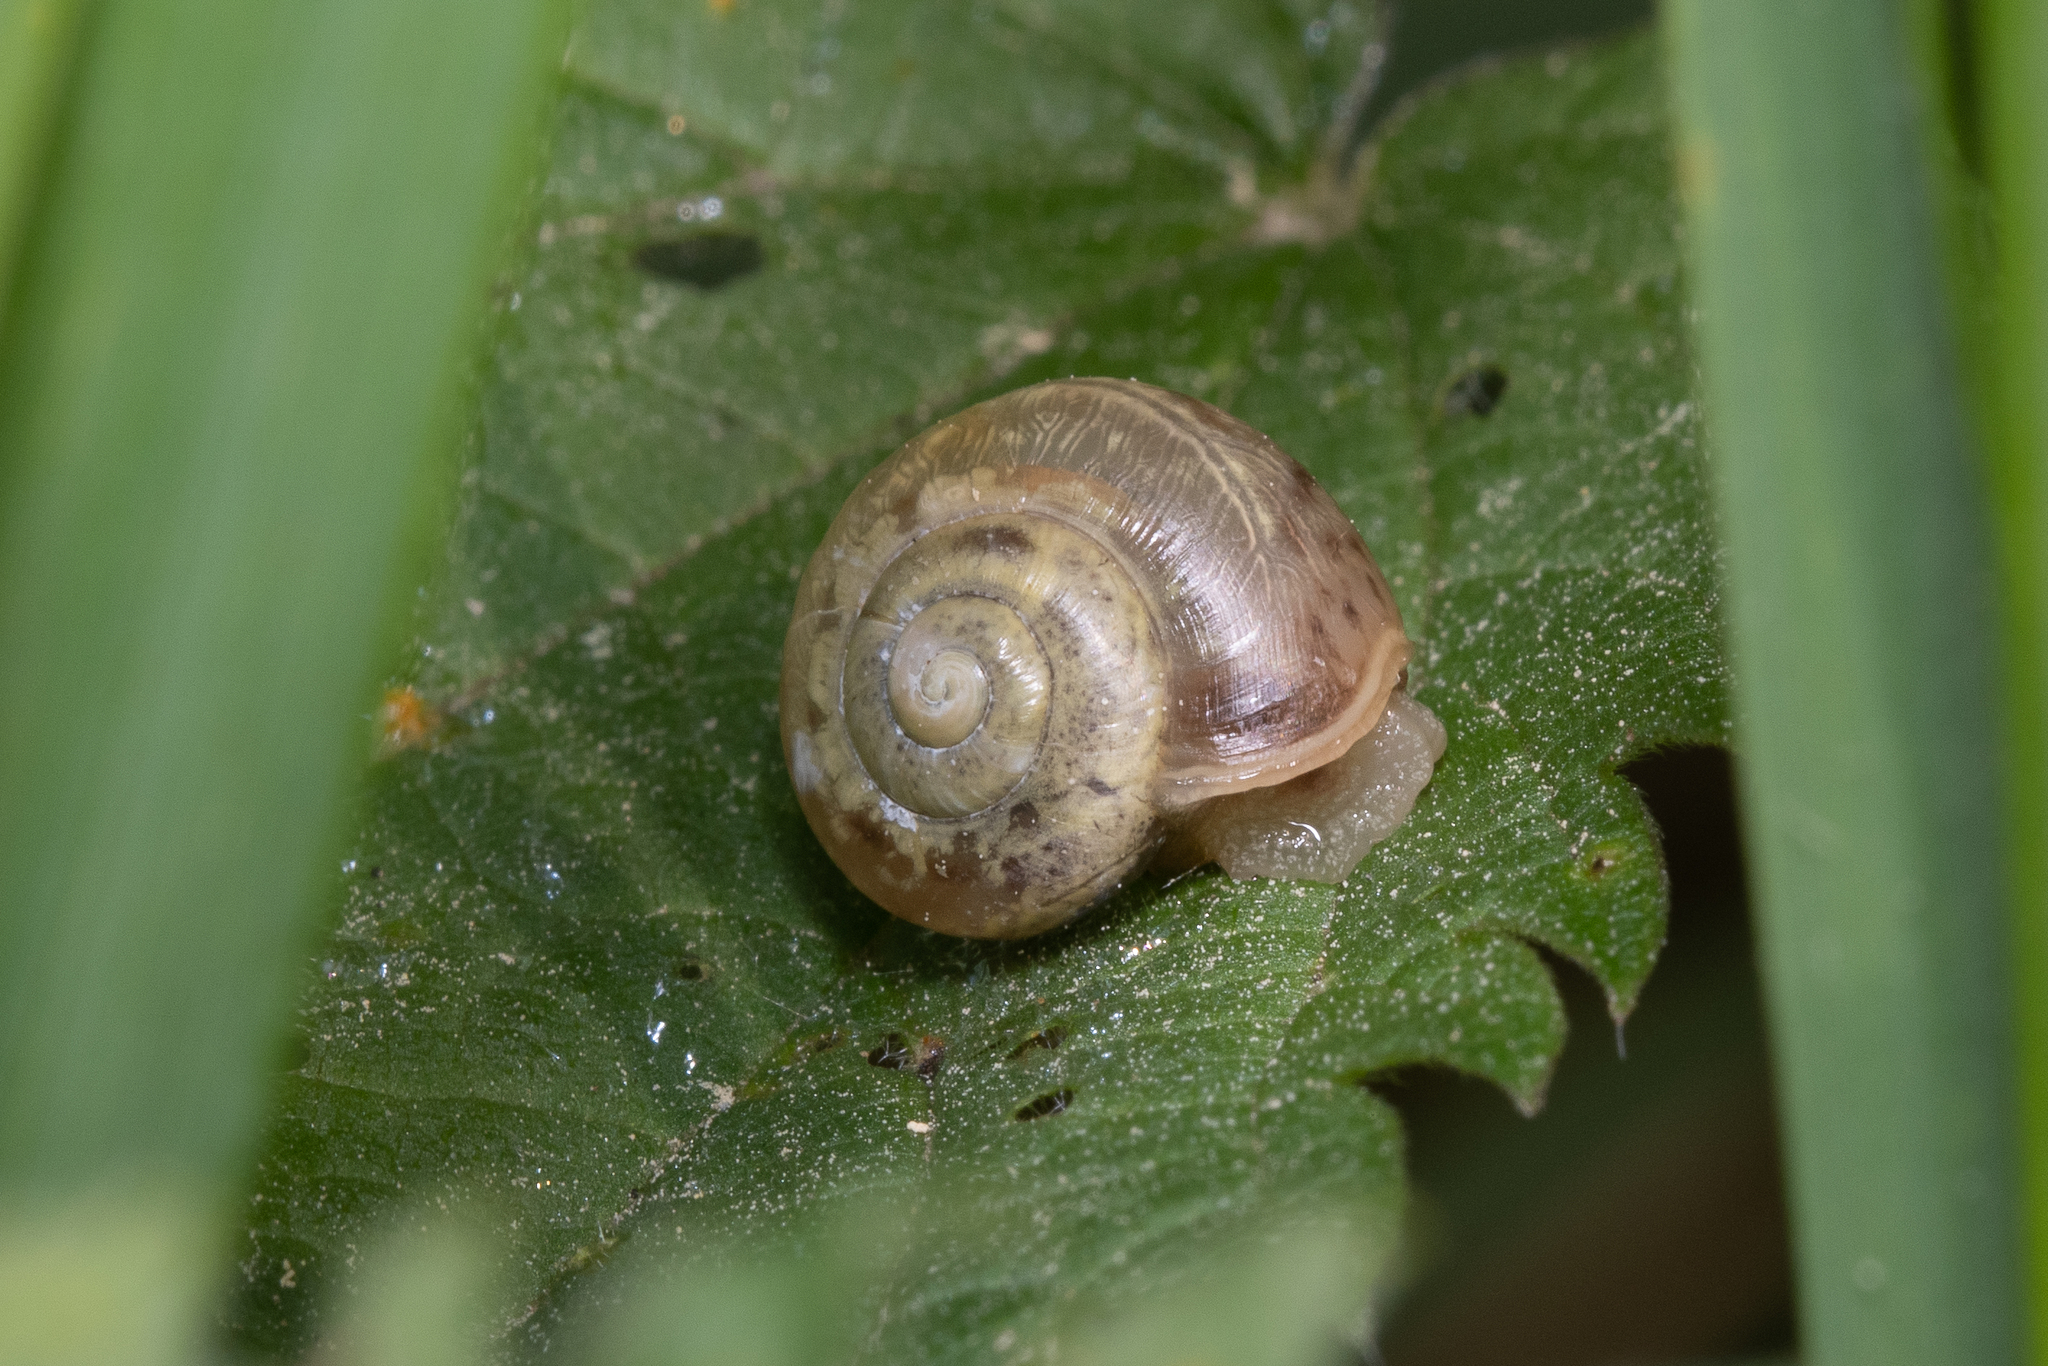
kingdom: Animalia
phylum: Mollusca
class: Gastropoda
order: Stylommatophora
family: Camaenidae
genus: Fruticicola
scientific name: Fruticicola fruticum
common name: Bush snail
